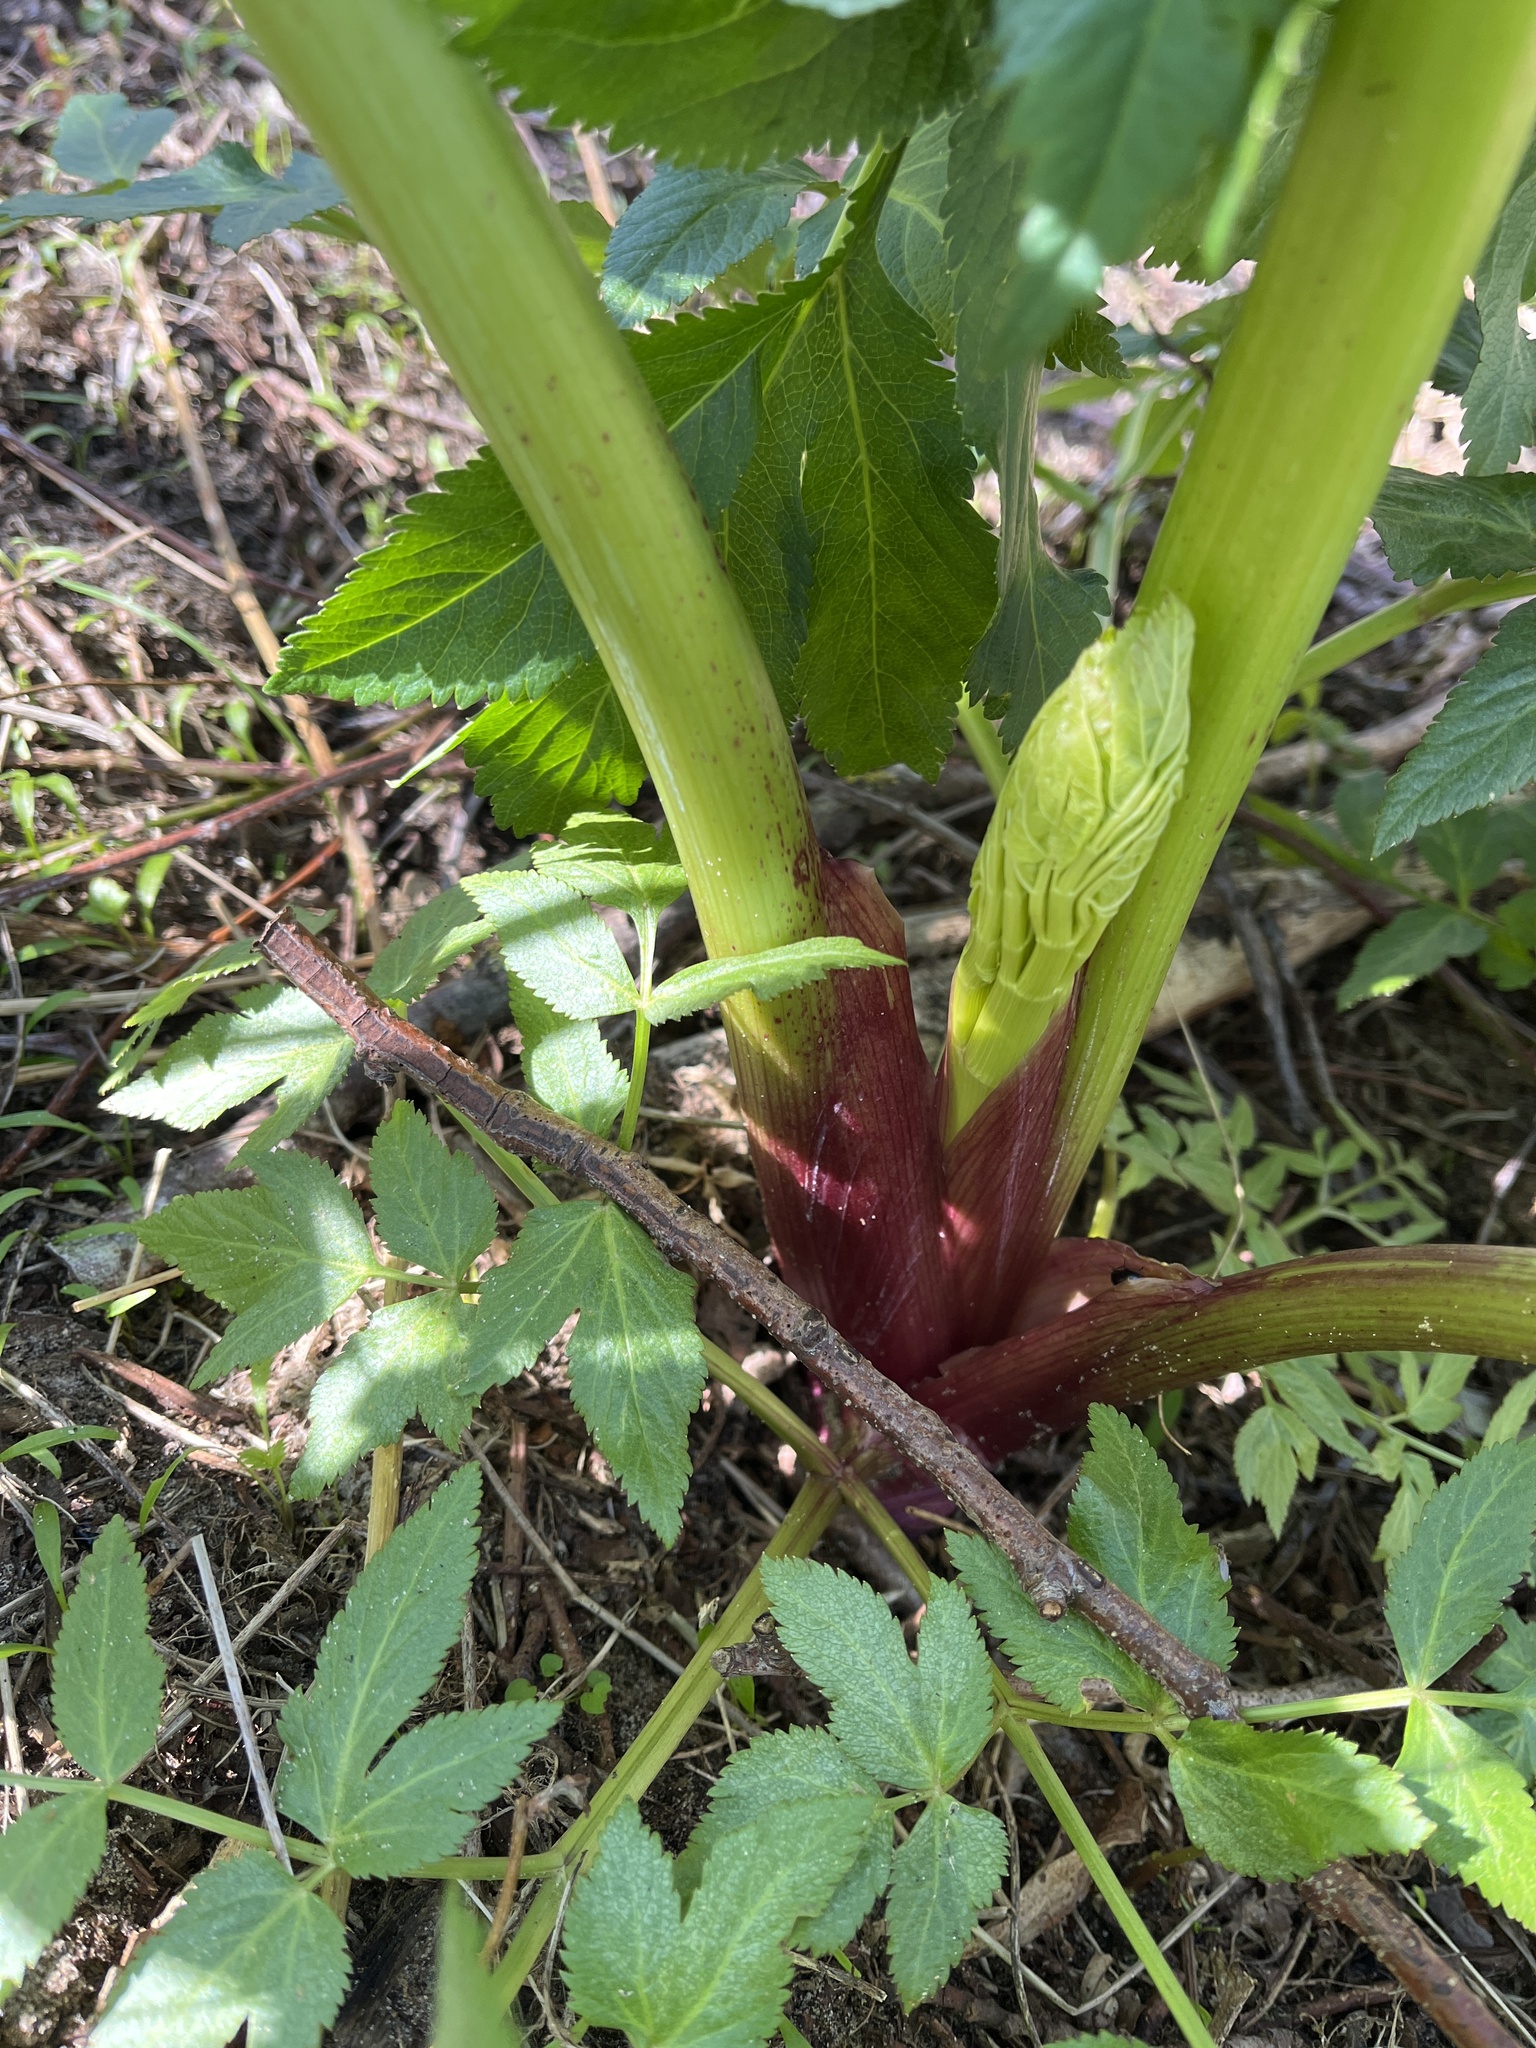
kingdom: Plantae
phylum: Tracheophyta
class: Magnoliopsida
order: Apiales
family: Apiaceae
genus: Angelica
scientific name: Angelica archangelica
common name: Garden angelica
